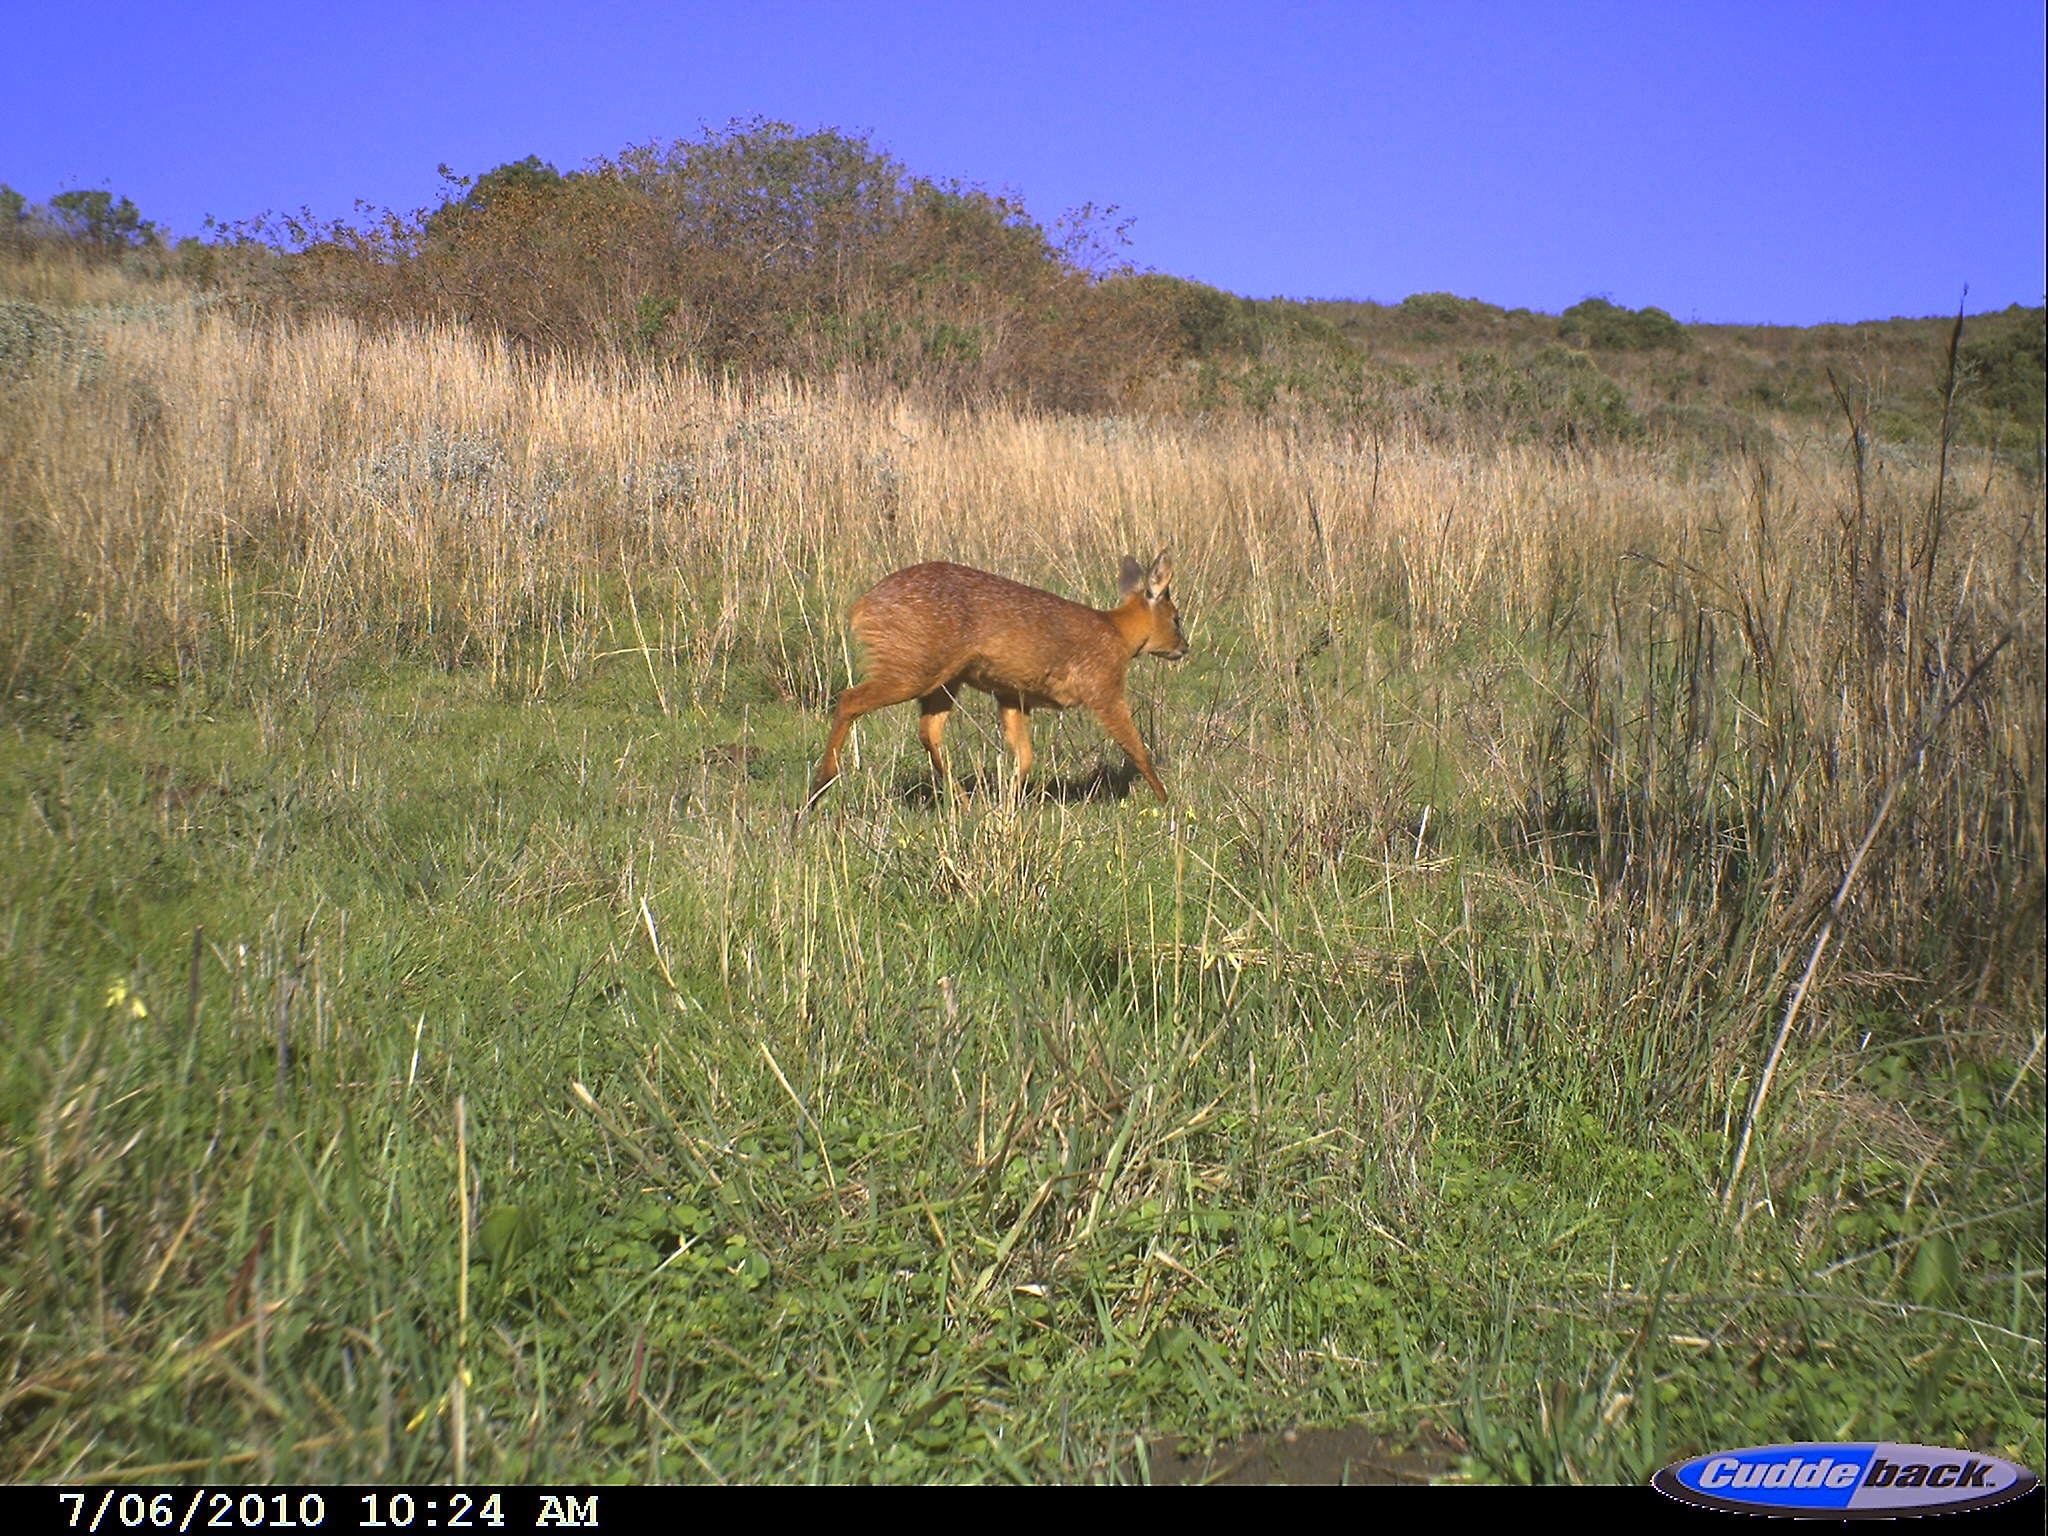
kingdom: Animalia
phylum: Chordata
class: Mammalia
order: Artiodactyla
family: Bovidae
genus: Raphicerus
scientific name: Raphicerus melanotis
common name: Cape grysbok
